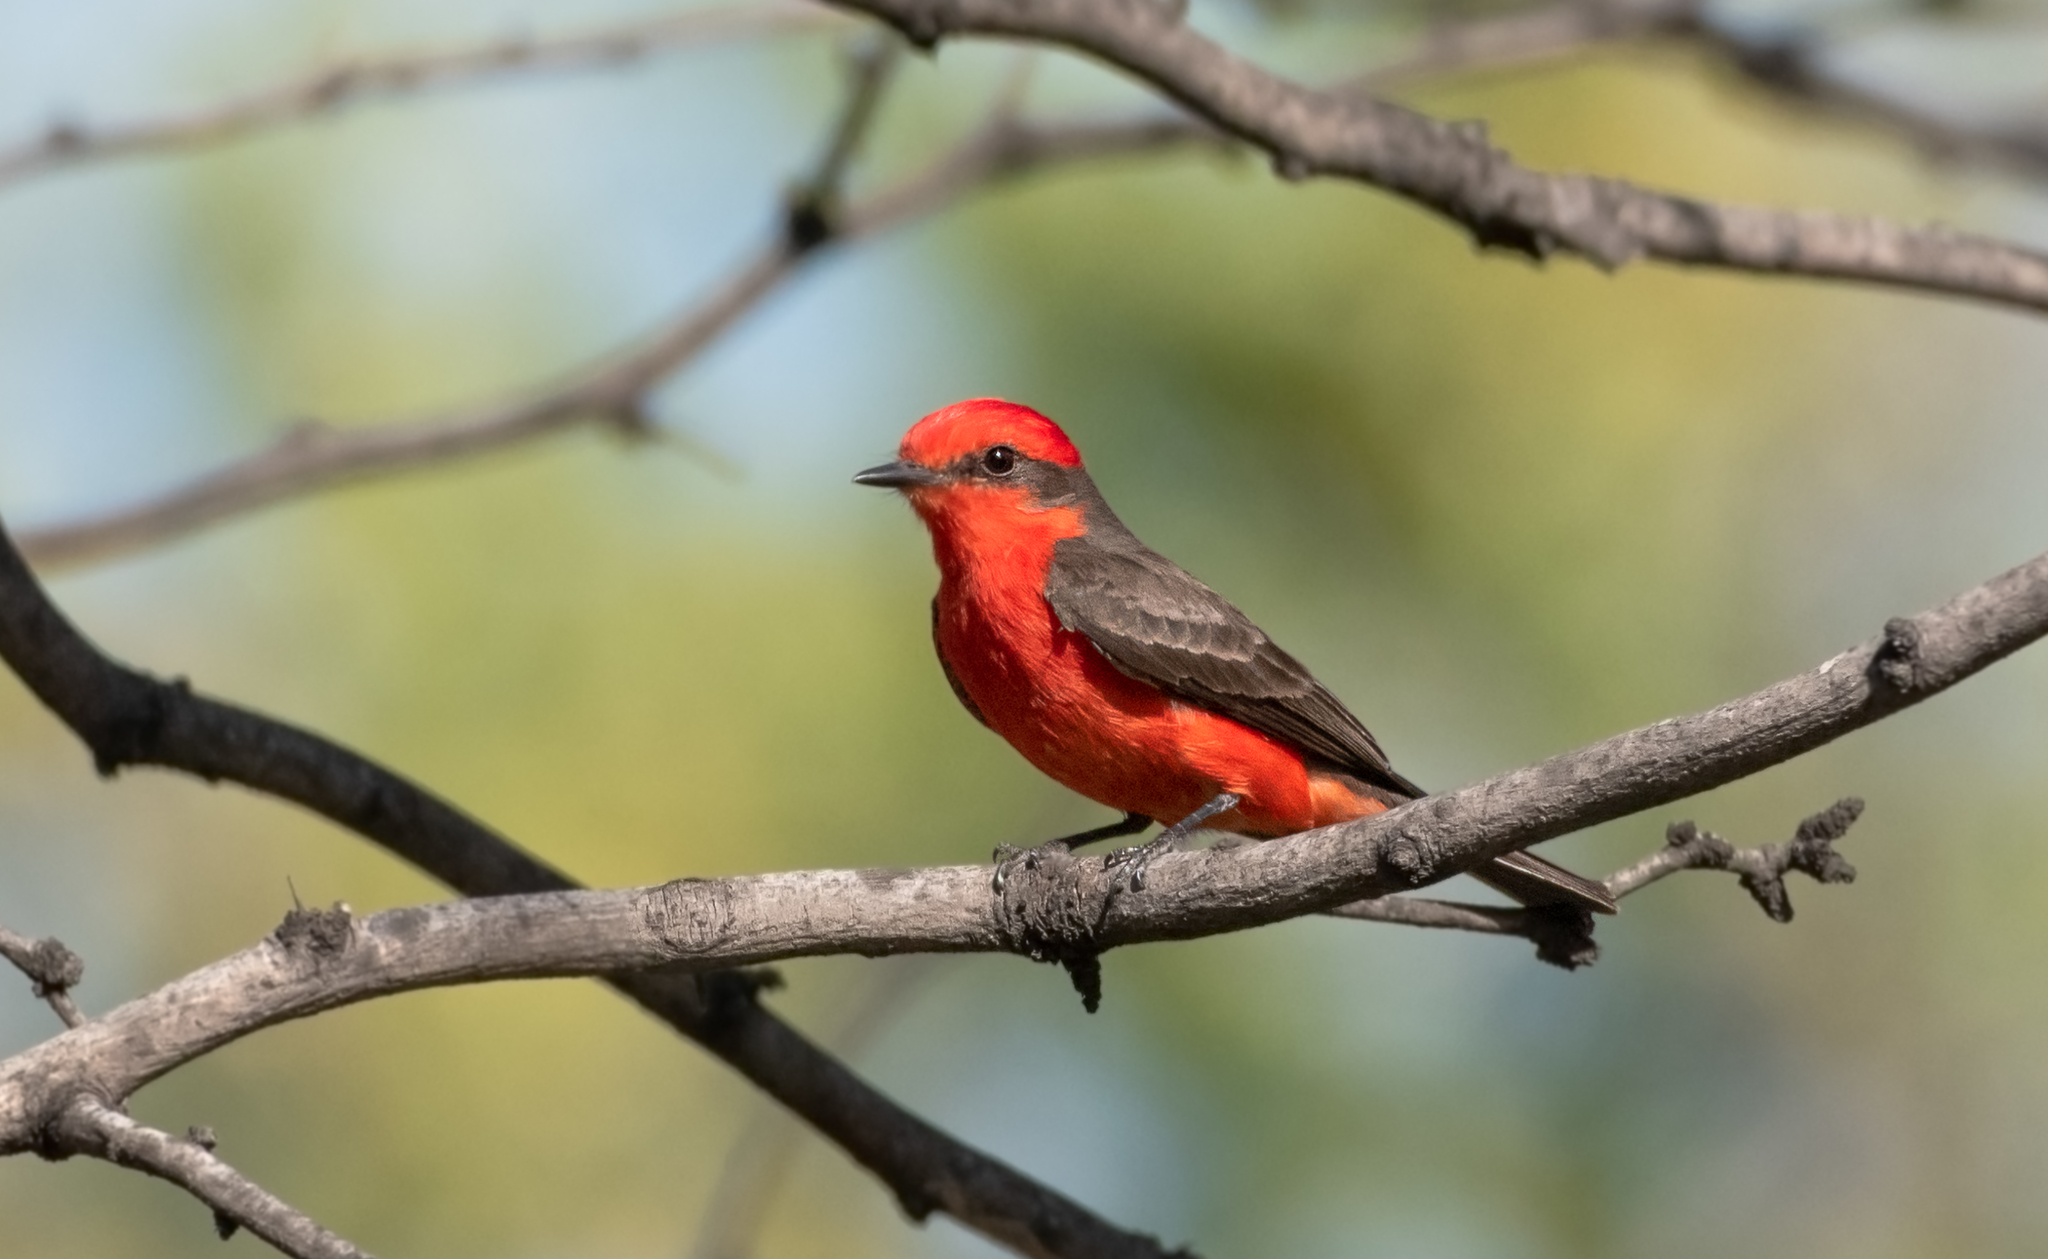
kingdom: Animalia
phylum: Chordata
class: Aves
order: Passeriformes
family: Tyrannidae
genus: Pyrocephalus
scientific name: Pyrocephalus rubinus
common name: Vermilion flycatcher
